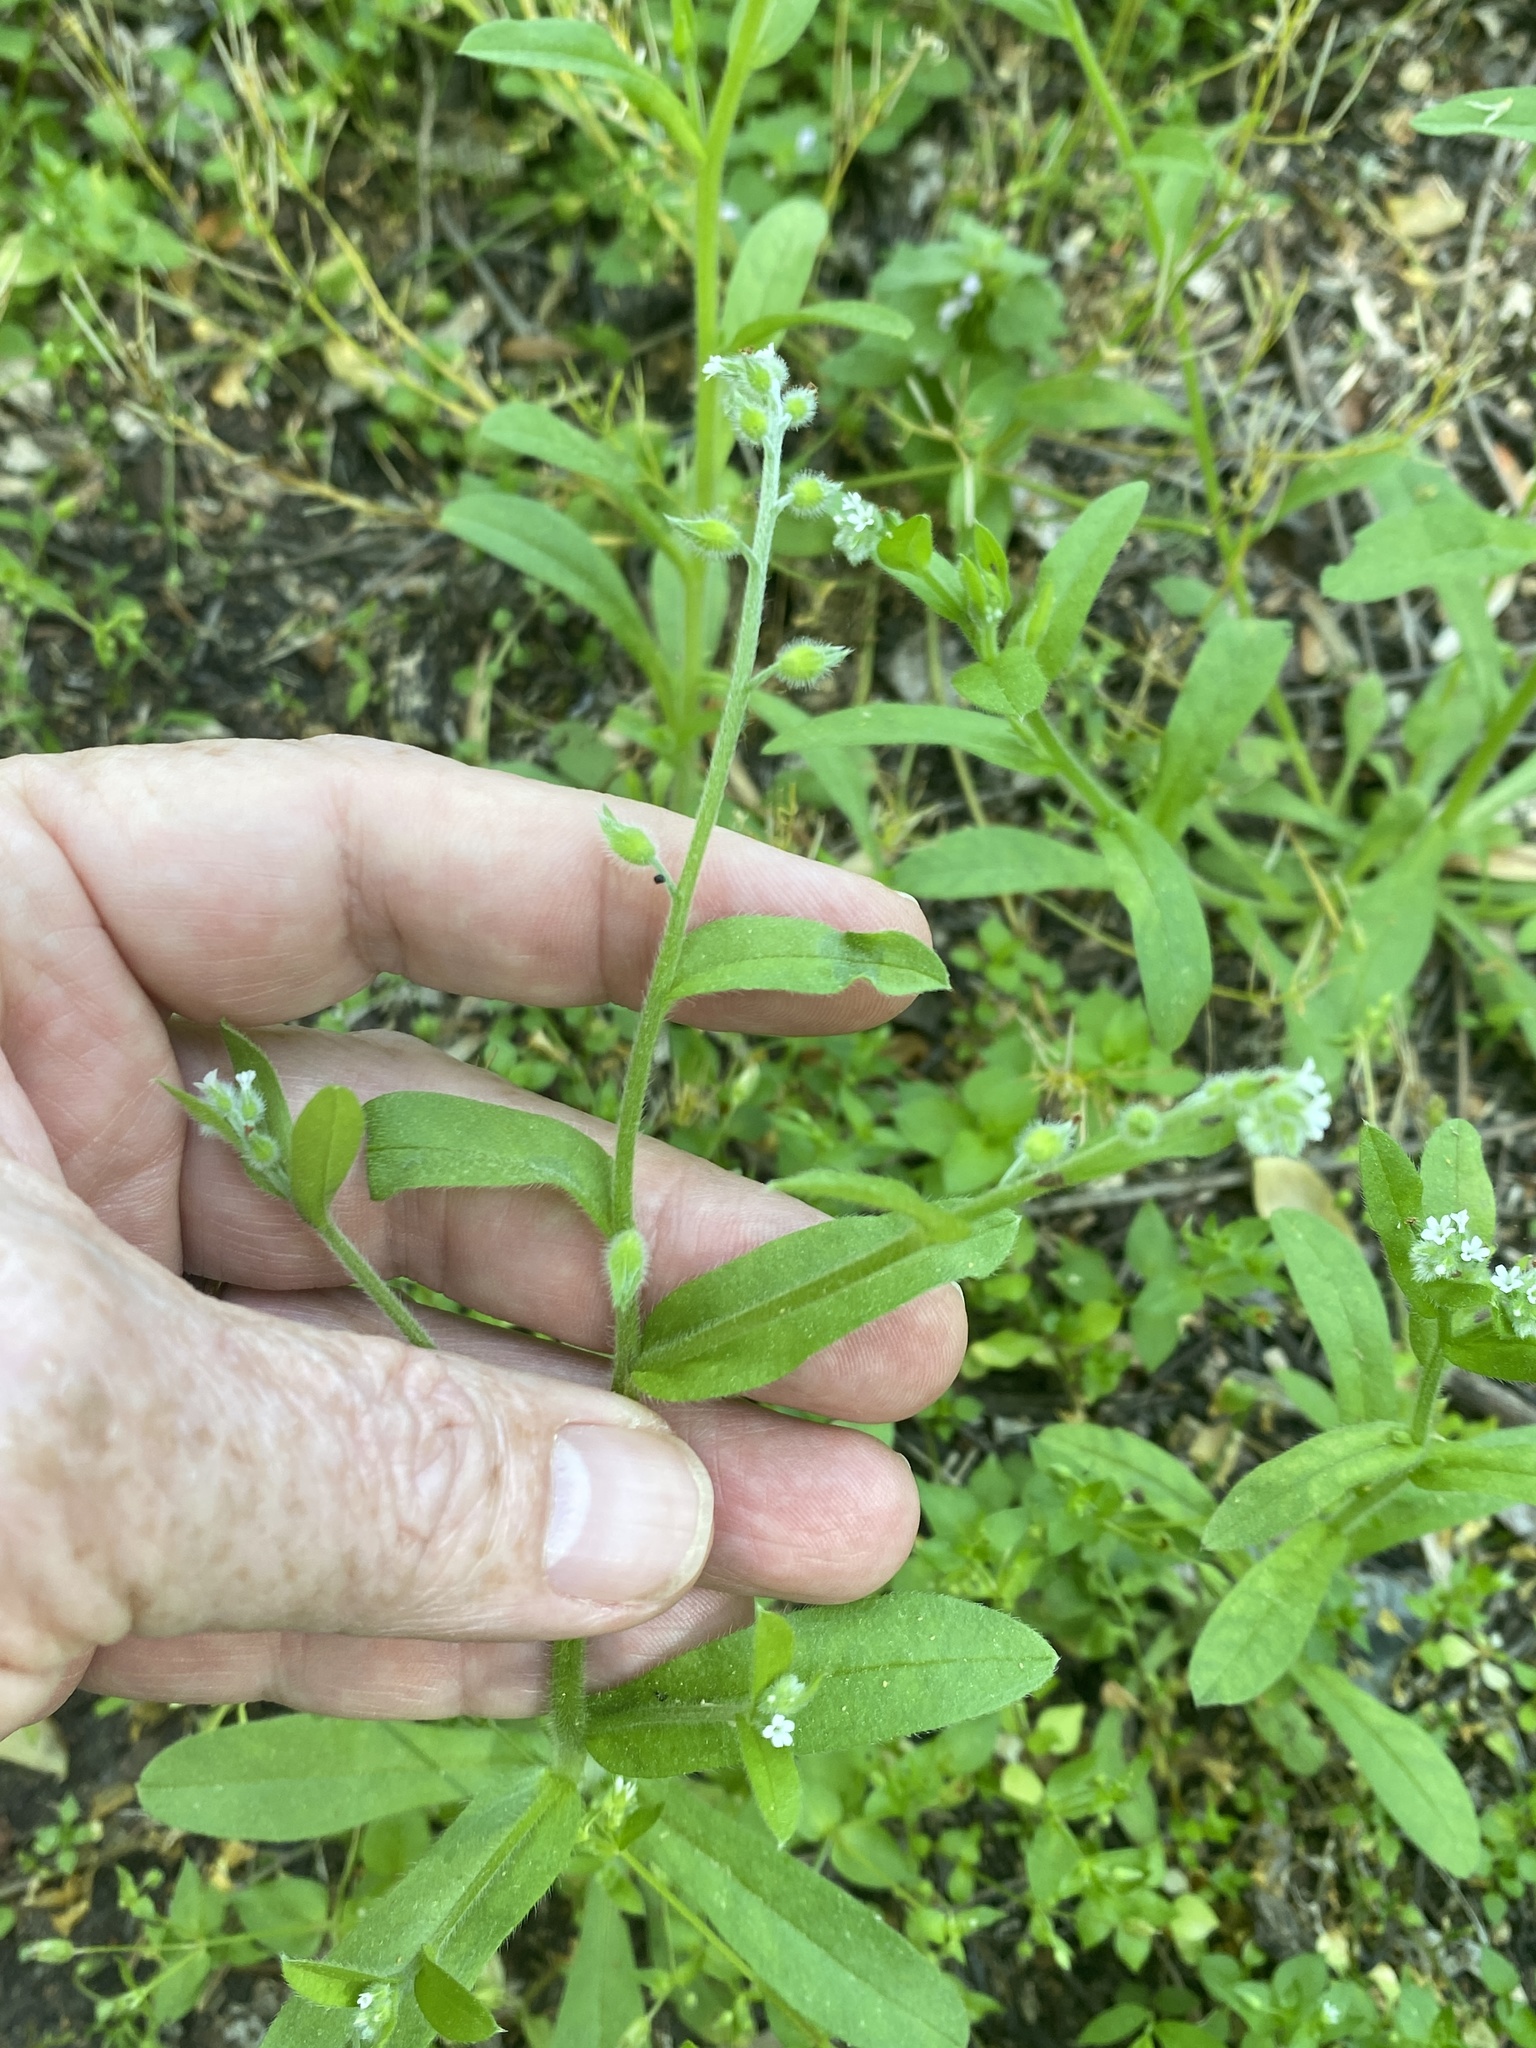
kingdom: Plantae
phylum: Tracheophyta
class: Magnoliopsida
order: Boraginales
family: Boraginaceae
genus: Myosotis
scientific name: Myosotis macrosperma
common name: Large-seed forget-me-not
